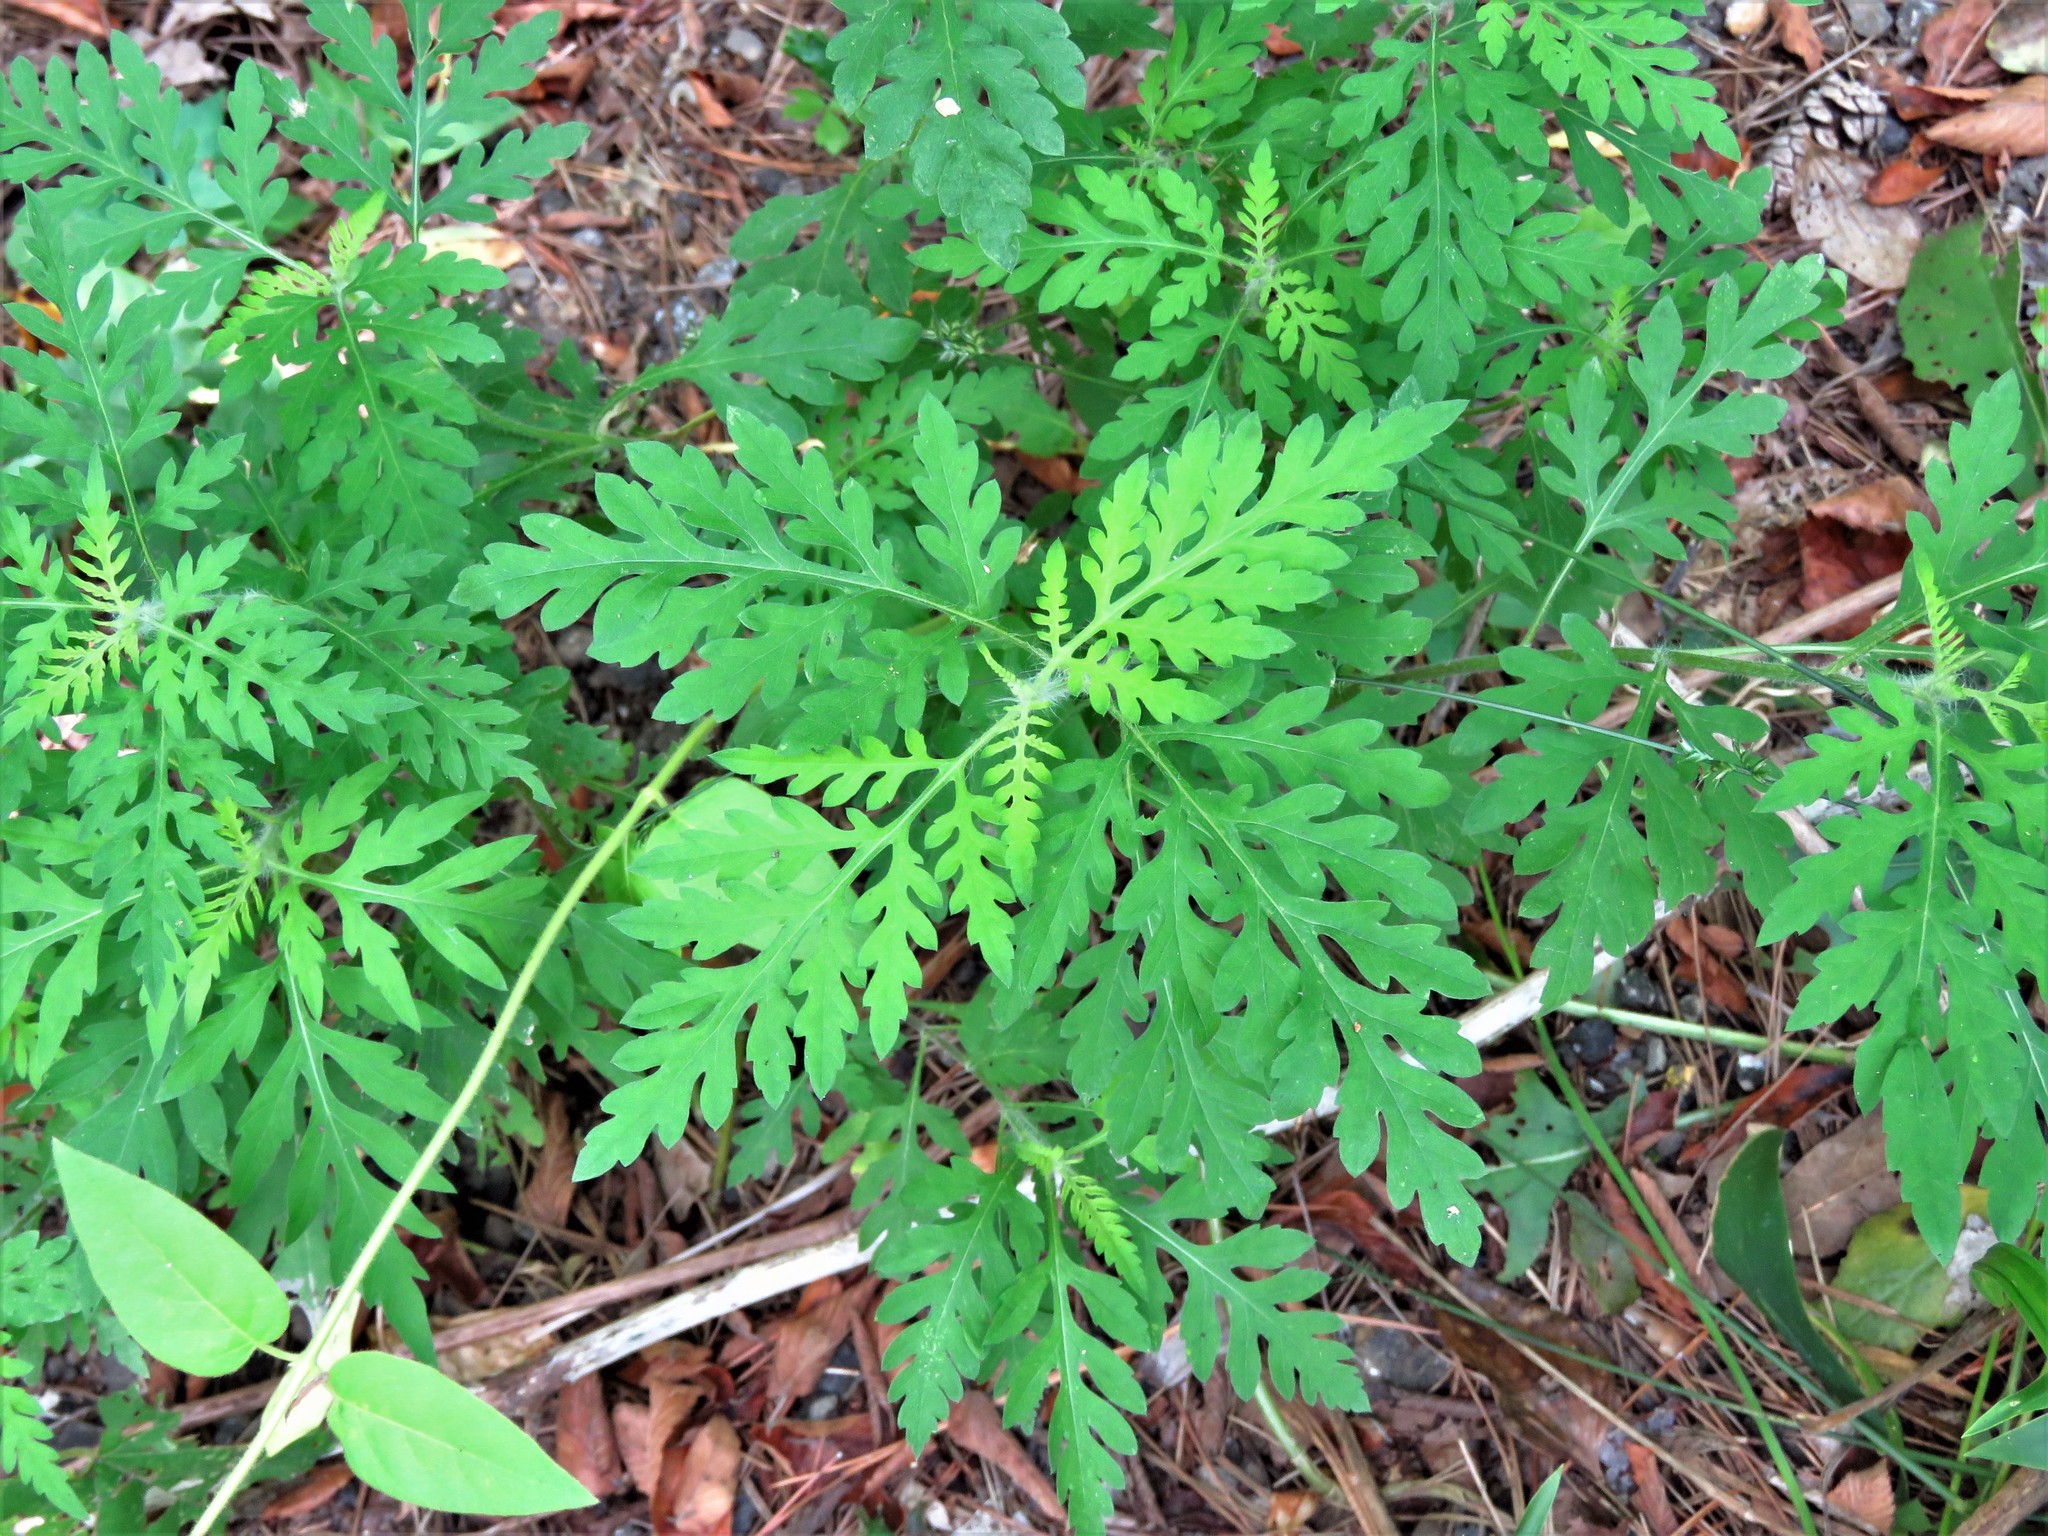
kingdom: Plantae
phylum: Tracheophyta
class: Magnoliopsida
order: Asterales
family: Asteraceae
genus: Ambrosia
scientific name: Ambrosia artemisiifolia
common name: Annual ragweed
